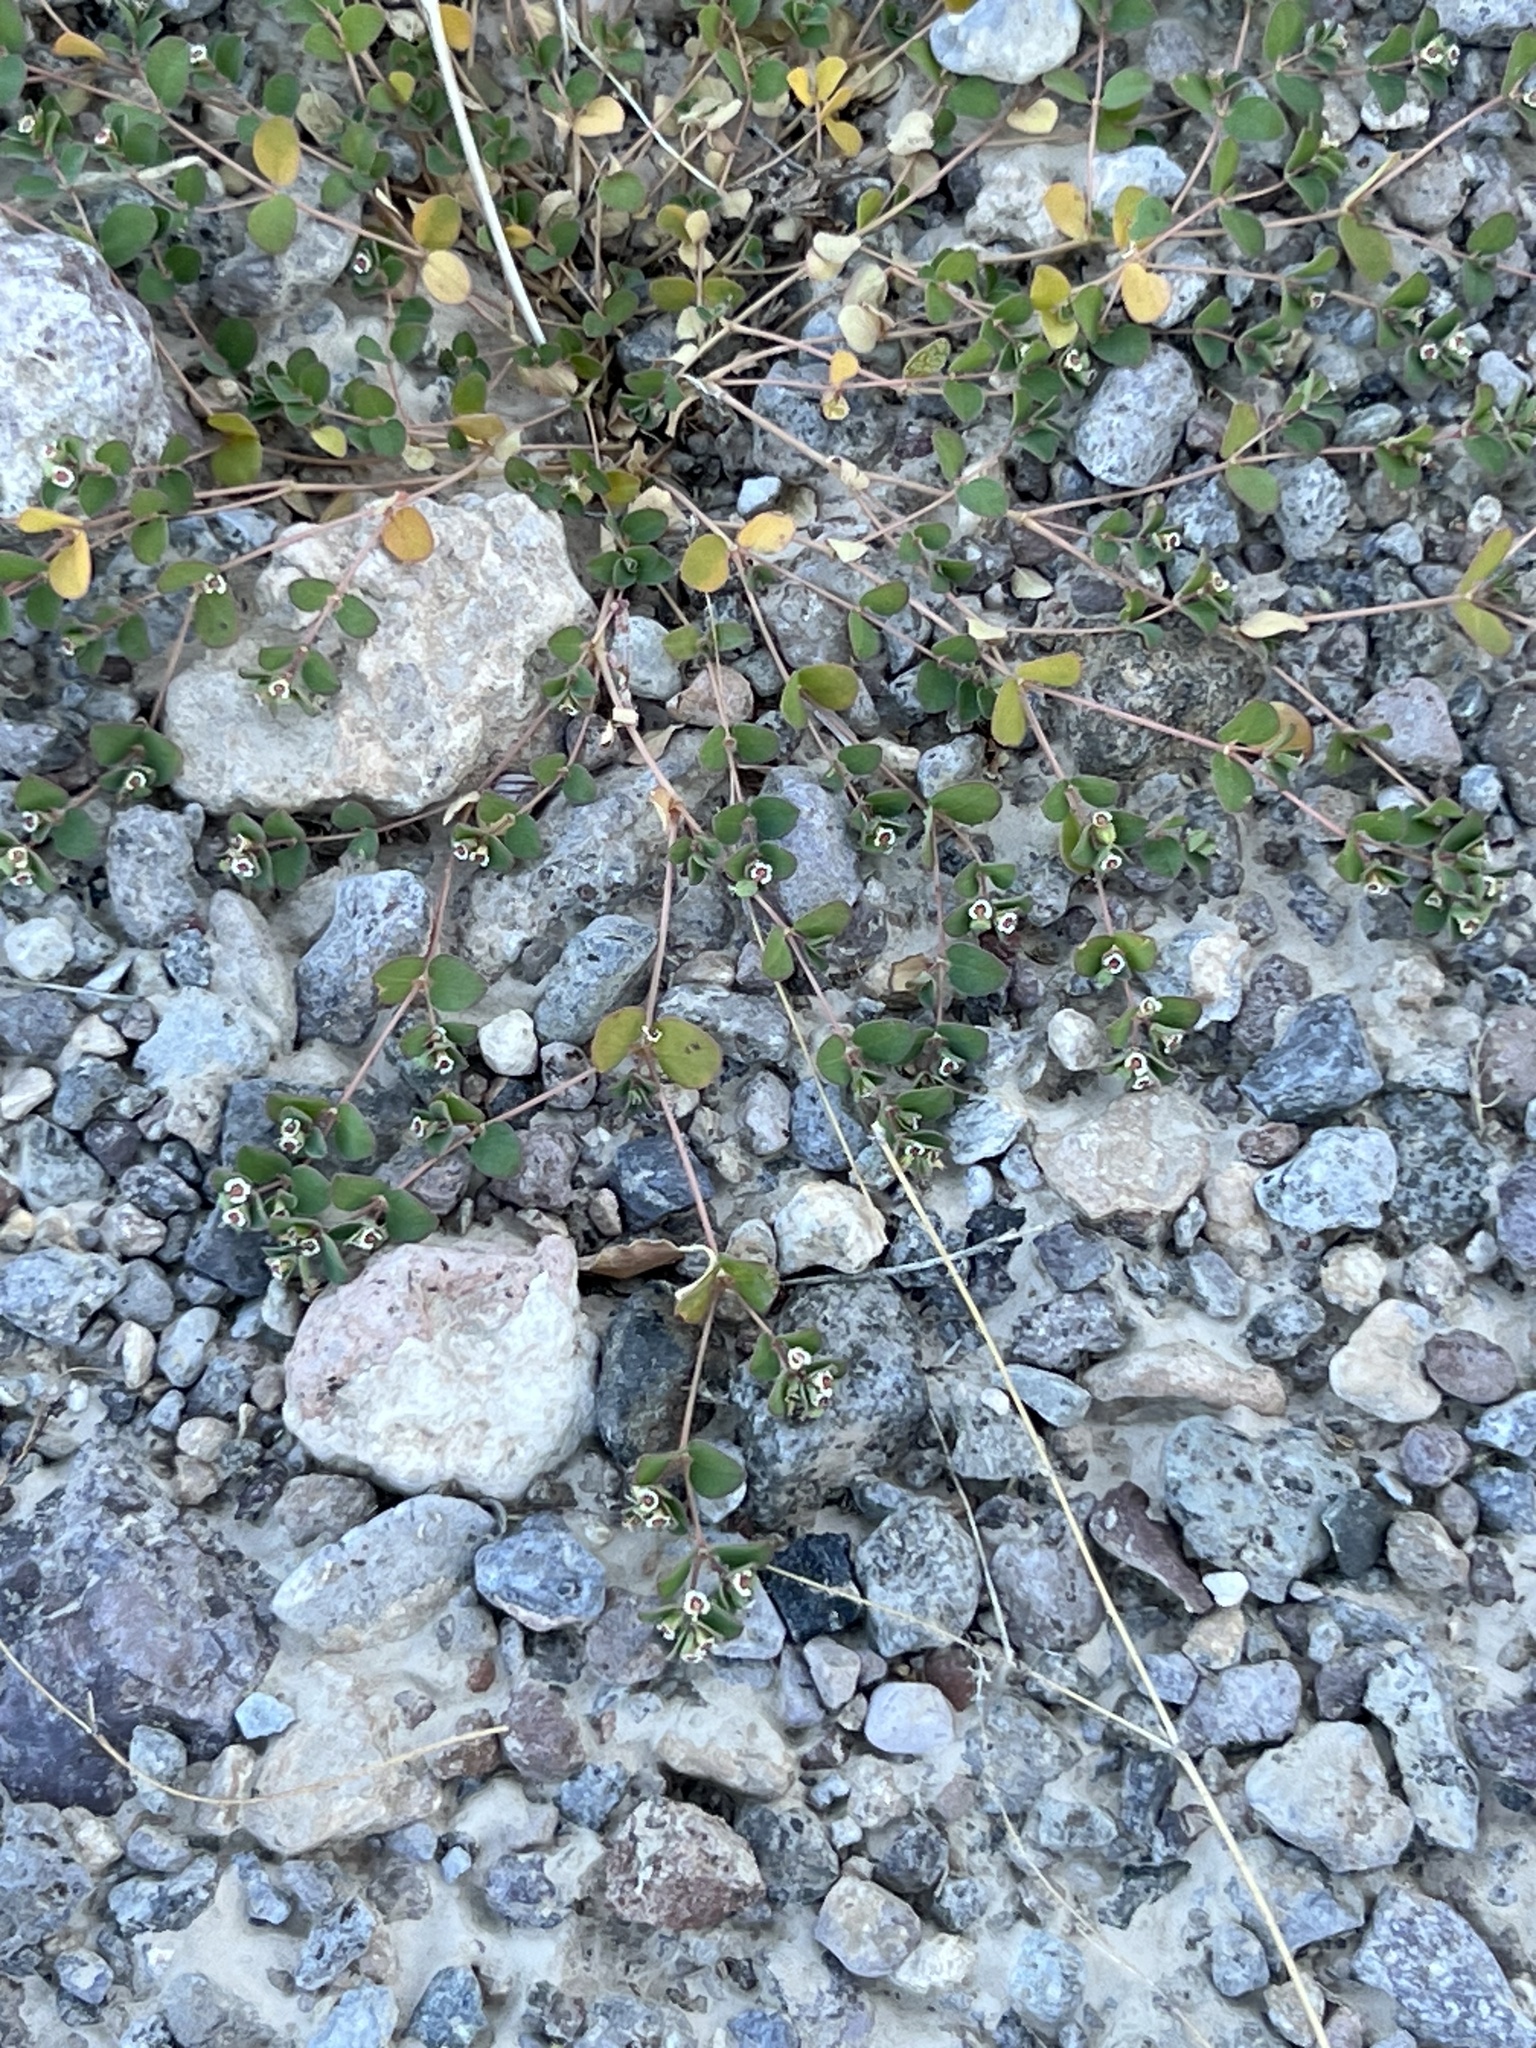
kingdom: Plantae
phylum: Tracheophyta
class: Magnoliopsida
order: Malpighiales
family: Euphorbiaceae
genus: Euphorbia
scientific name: Euphorbia albomarginata
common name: Whitemargin sandmat
